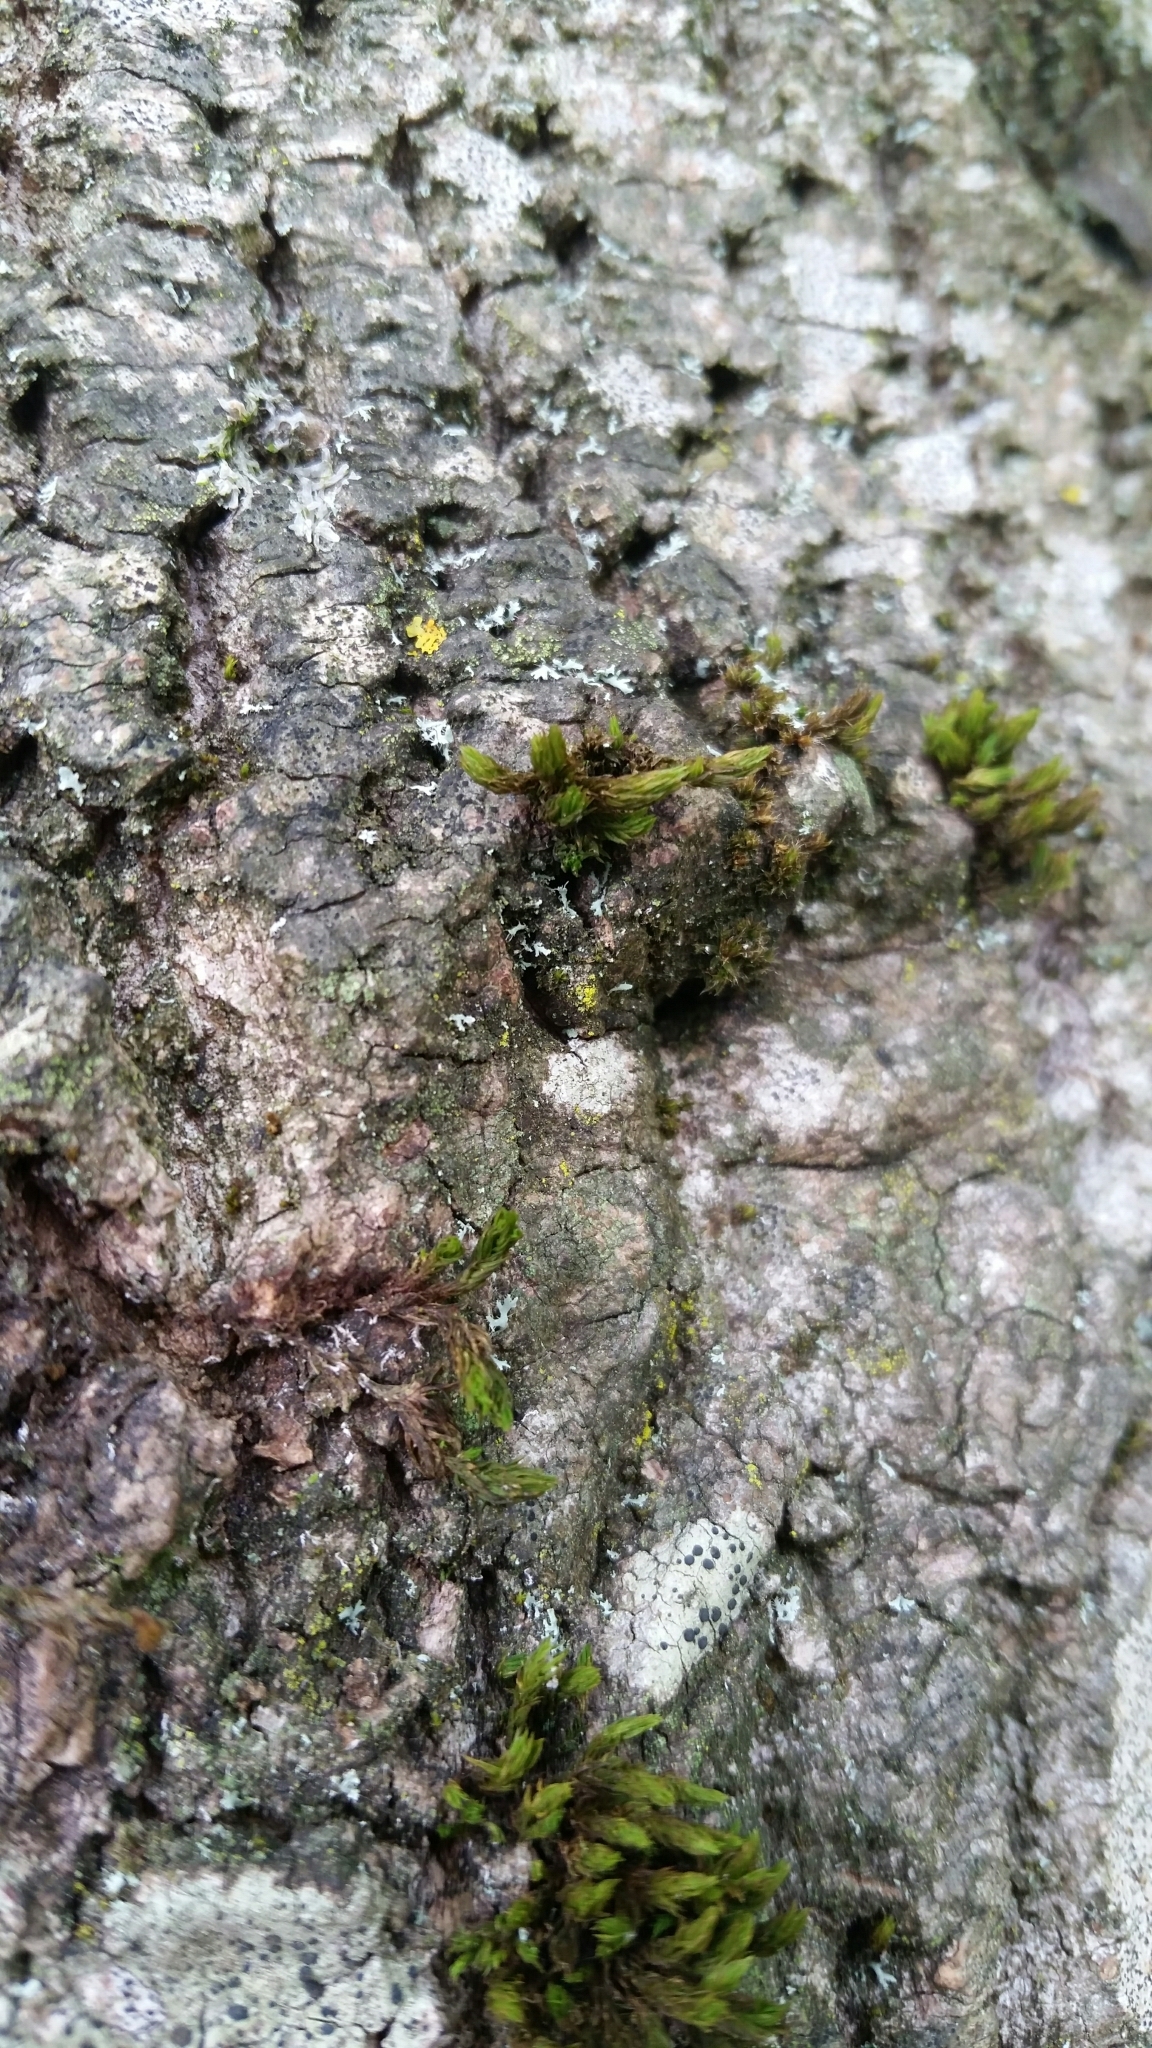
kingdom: Plantae
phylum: Bryophyta
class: Bryopsida
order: Orthotrichales
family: Orthotrichaceae
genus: Lewinskya
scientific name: Lewinskya affinis
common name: Wood bristle-moss
